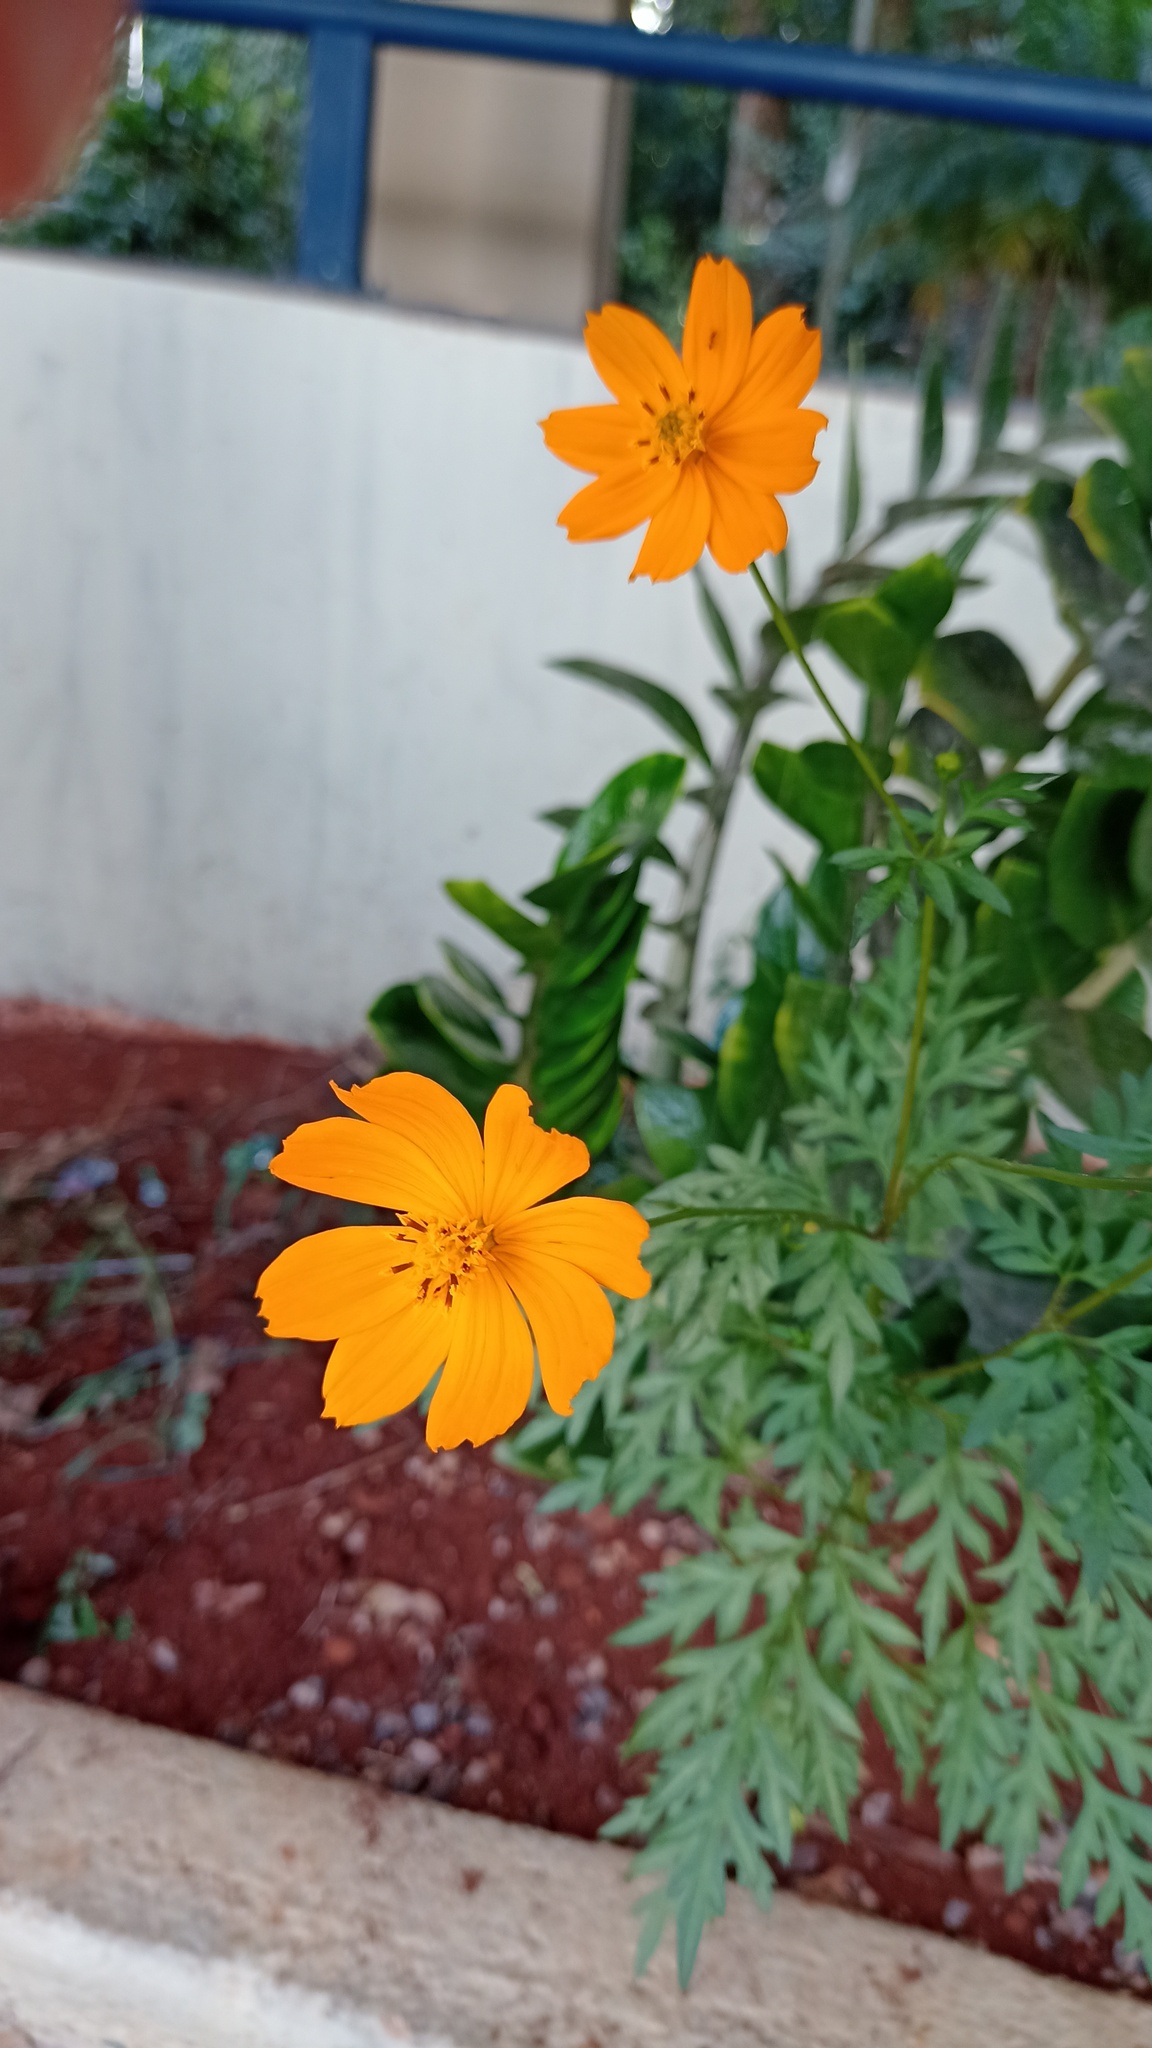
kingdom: Plantae
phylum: Tracheophyta
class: Magnoliopsida
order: Asterales
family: Asteraceae
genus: Cosmos
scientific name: Cosmos sulphureus
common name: Sulphur cosmos
